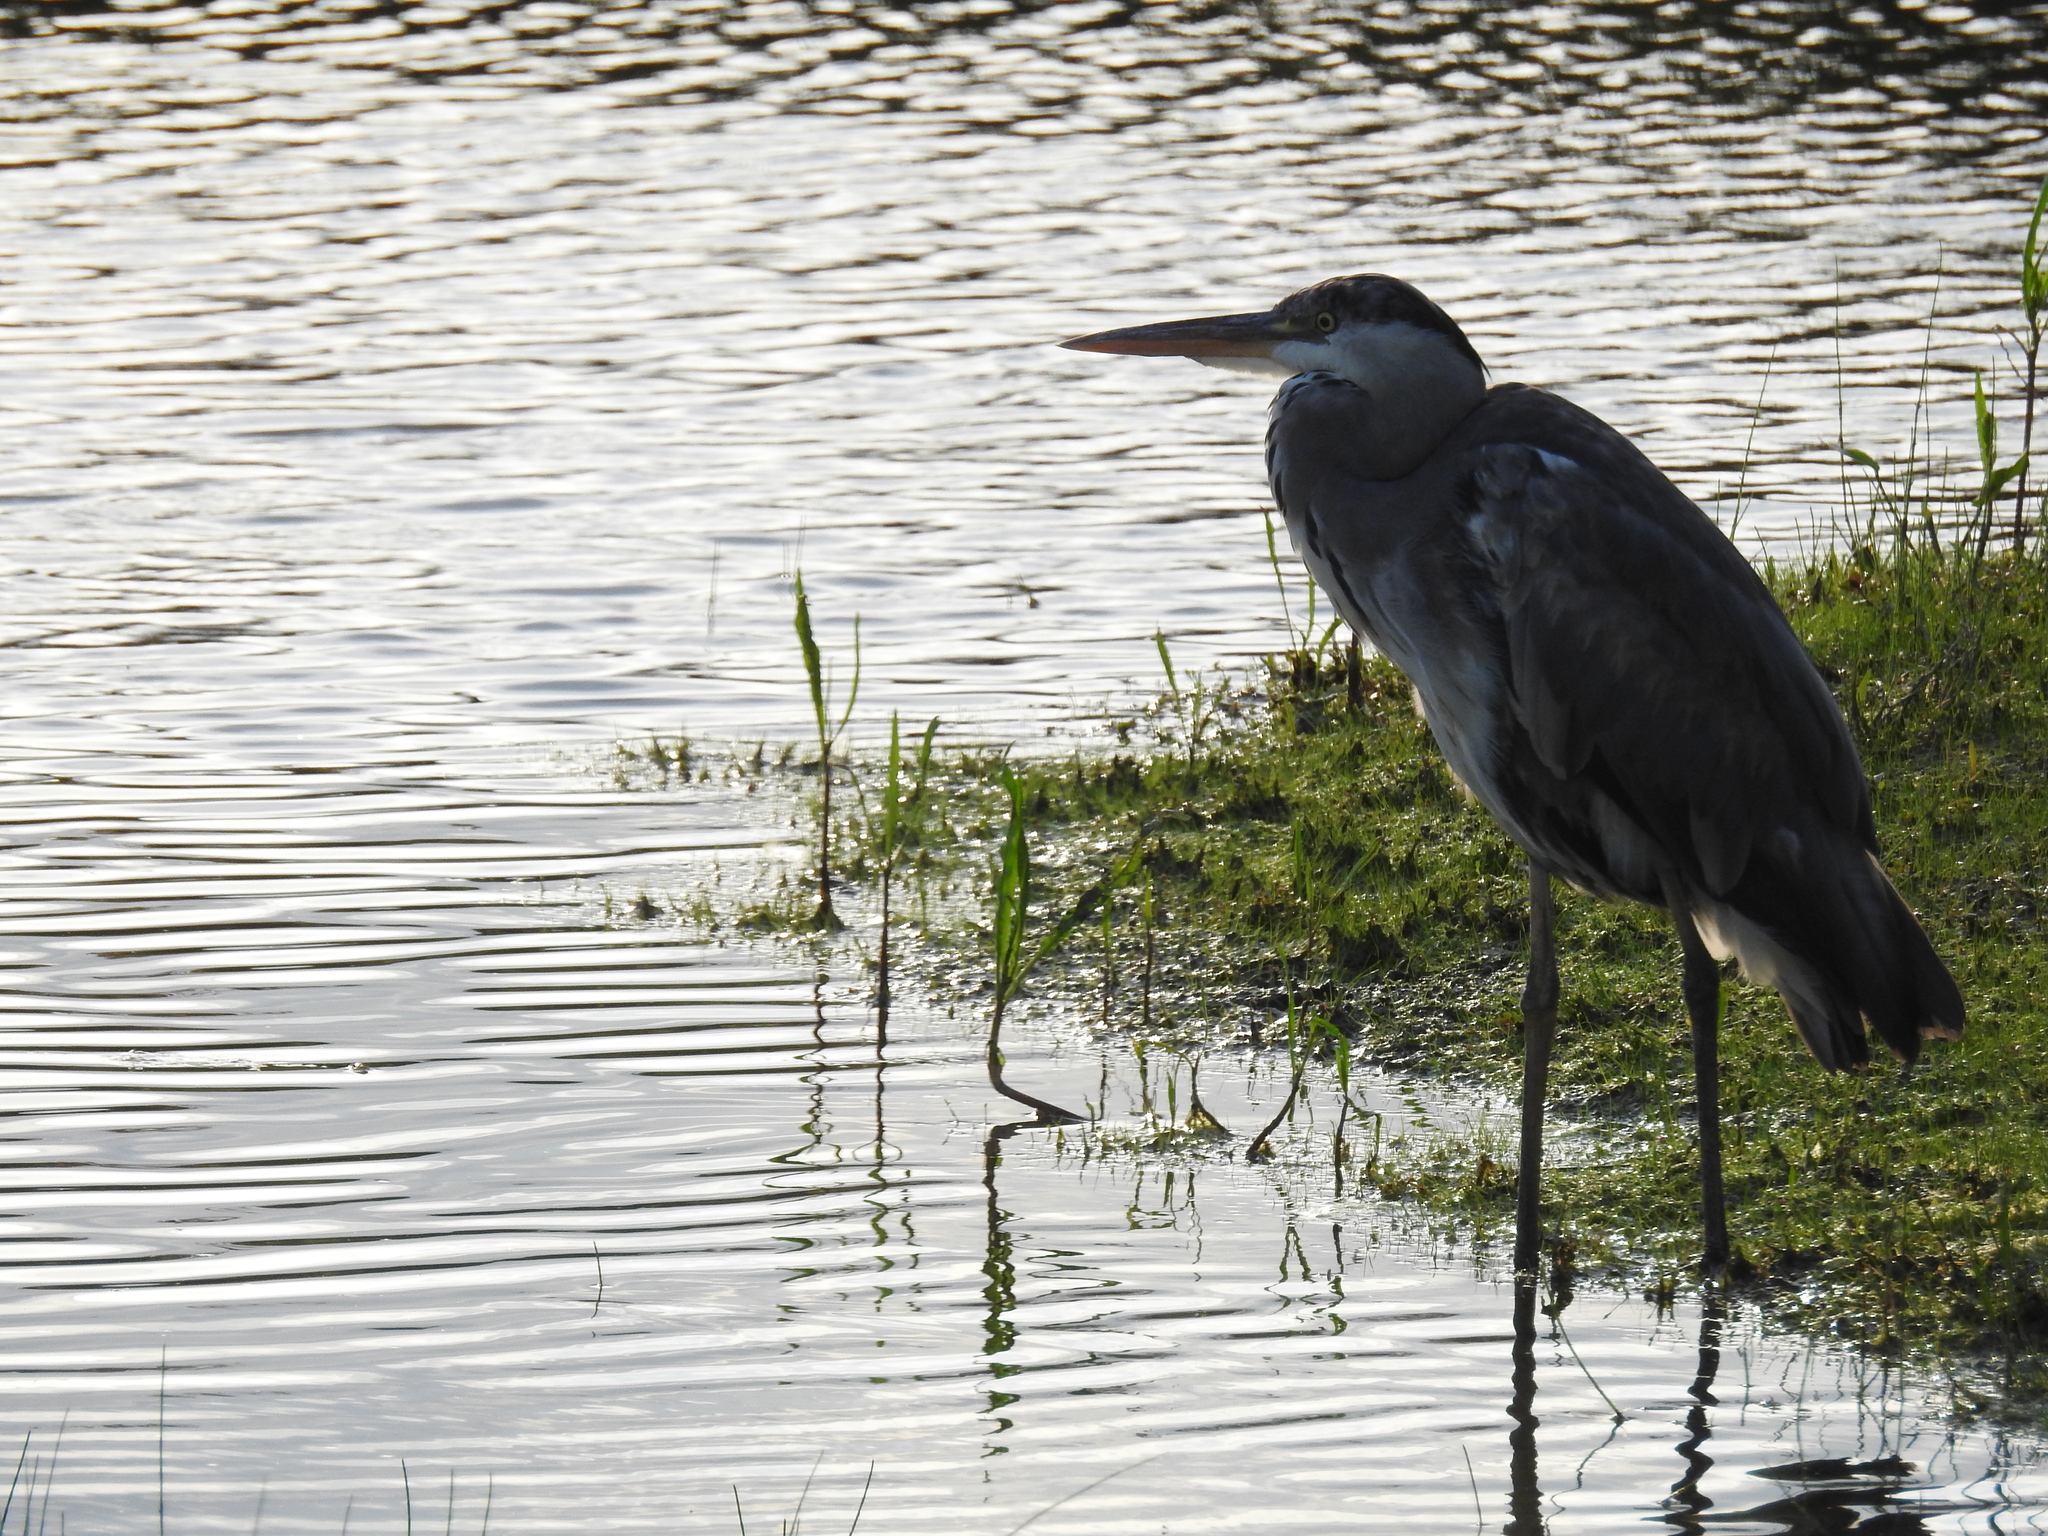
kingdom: Animalia
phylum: Chordata
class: Aves
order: Pelecaniformes
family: Ardeidae
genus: Ardea
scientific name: Ardea cinerea
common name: Grey heron
